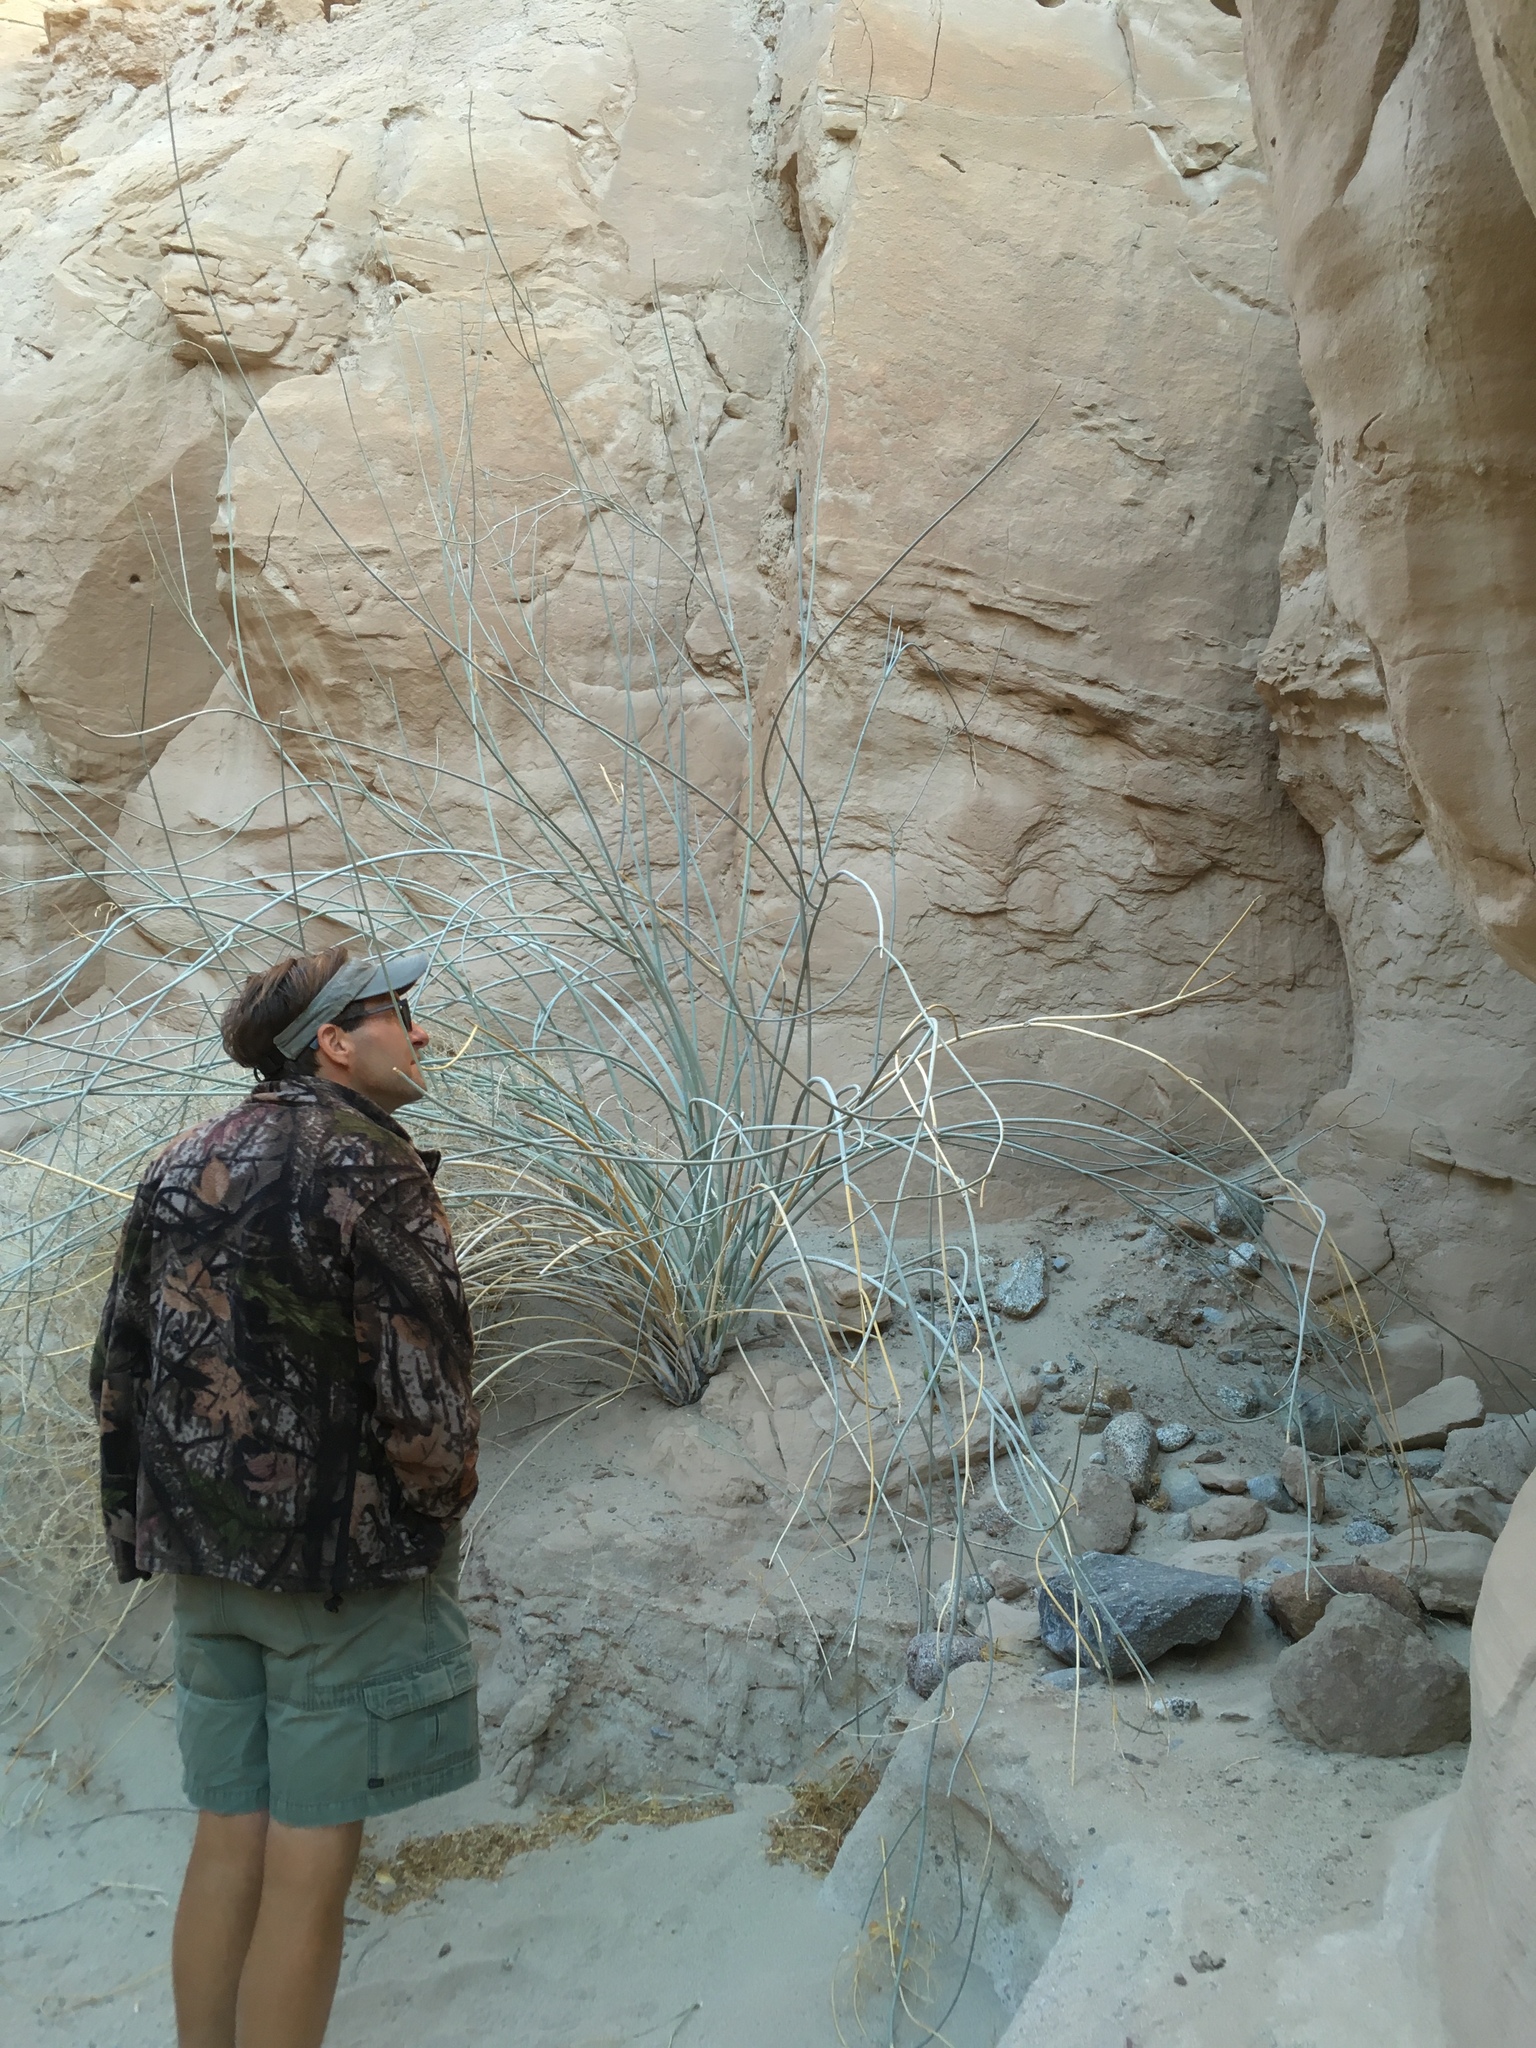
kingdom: Plantae
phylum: Tracheophyta
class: Magnoliopsida
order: Gentianales
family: Apocynaceae
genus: Asclepias
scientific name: Asclepias albicans
